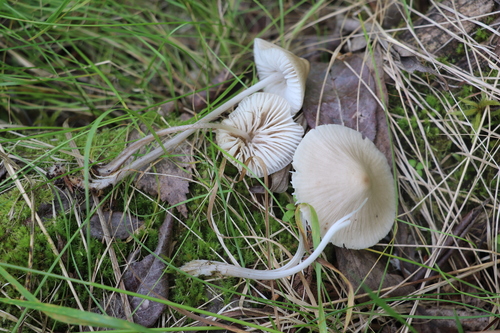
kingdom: Fungi
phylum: Basidiomycota
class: Agaricomycetes
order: Agaricales
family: Mycenaceae
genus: Mycena
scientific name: Mycena
